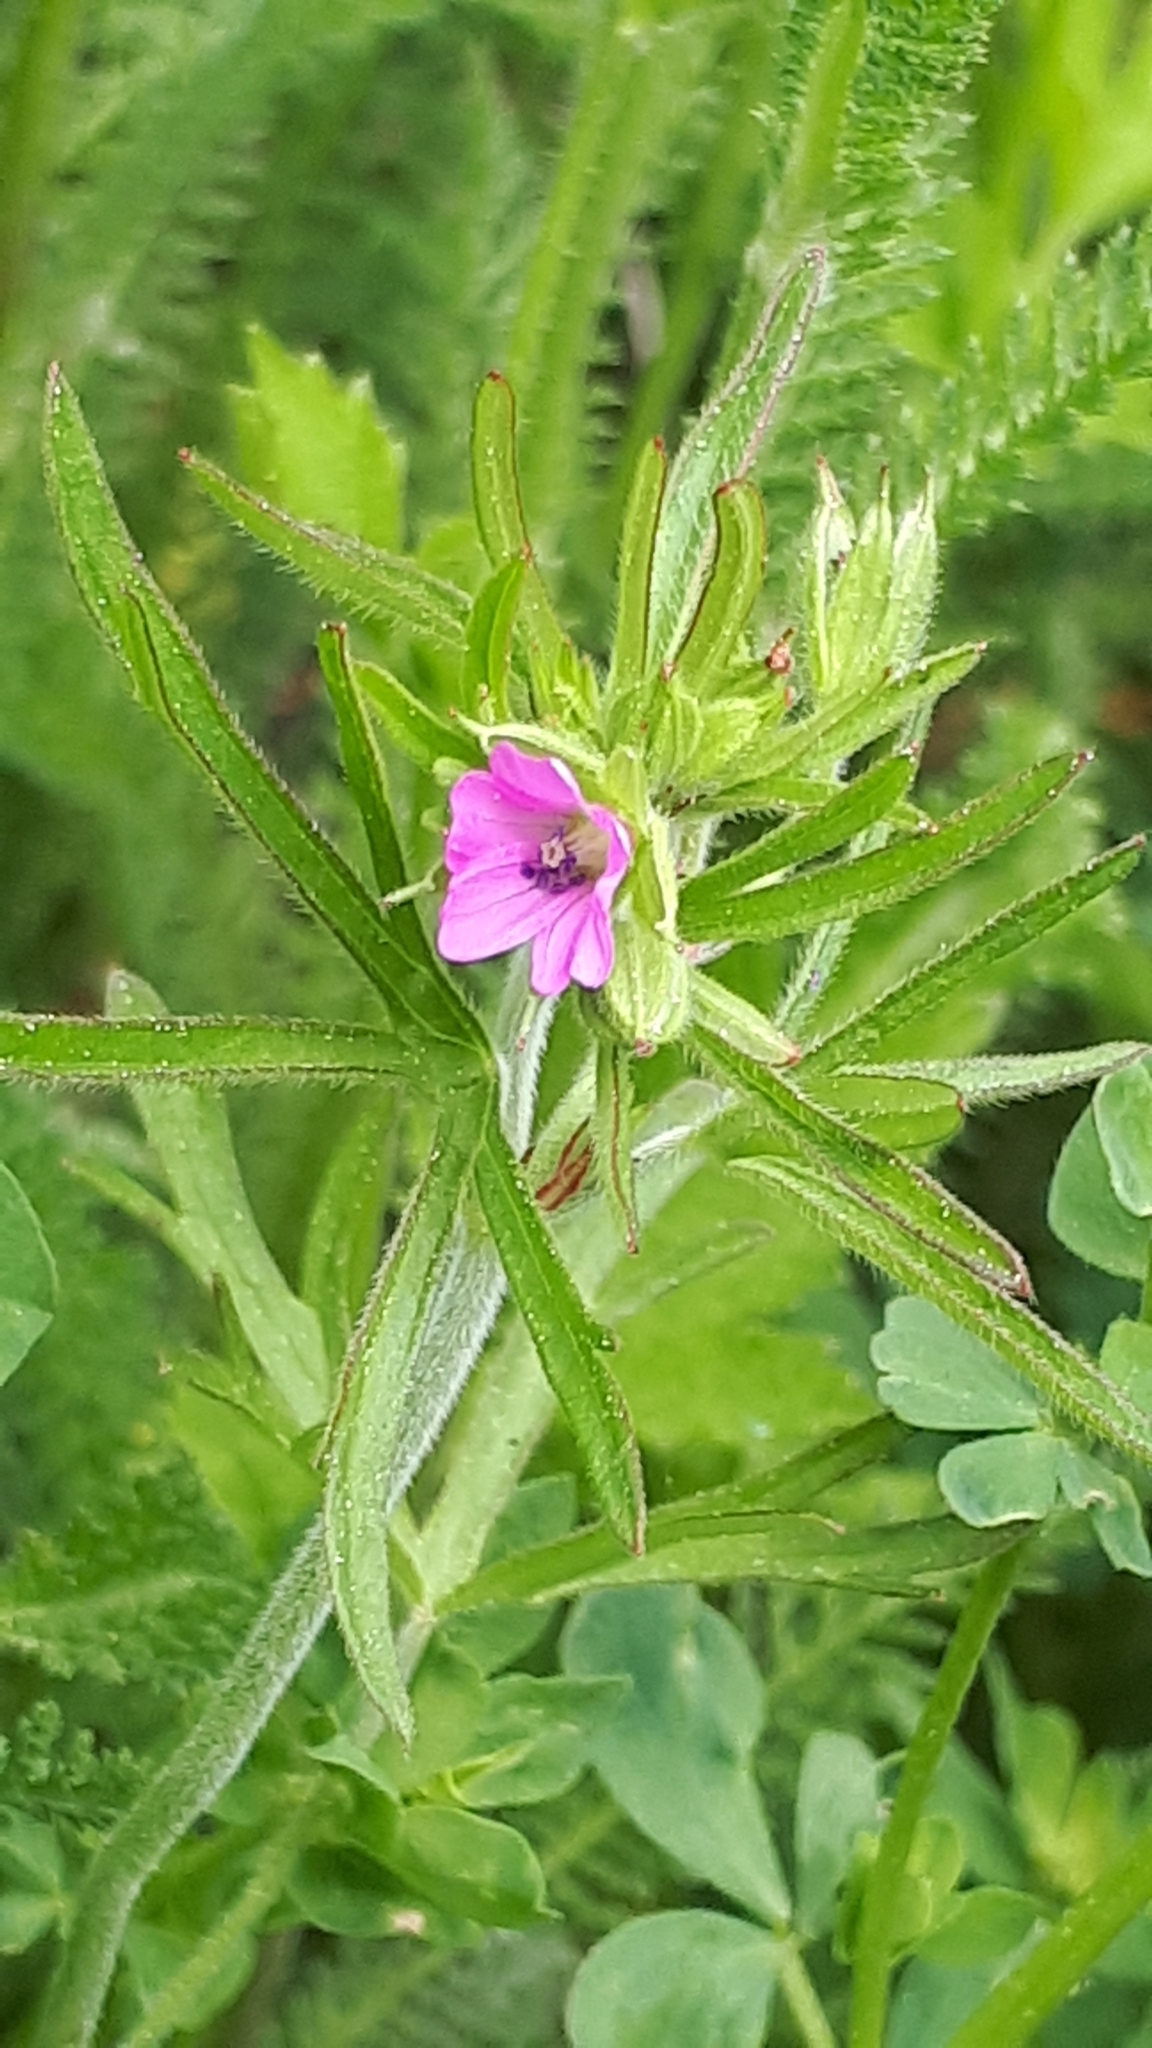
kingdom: Plantae
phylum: Tracheophyta
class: Magnoliopsida
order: Geraniales
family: Geraniaceae
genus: Geranium
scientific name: Geranium dissectum
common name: Cut-leaved crane's-bill
